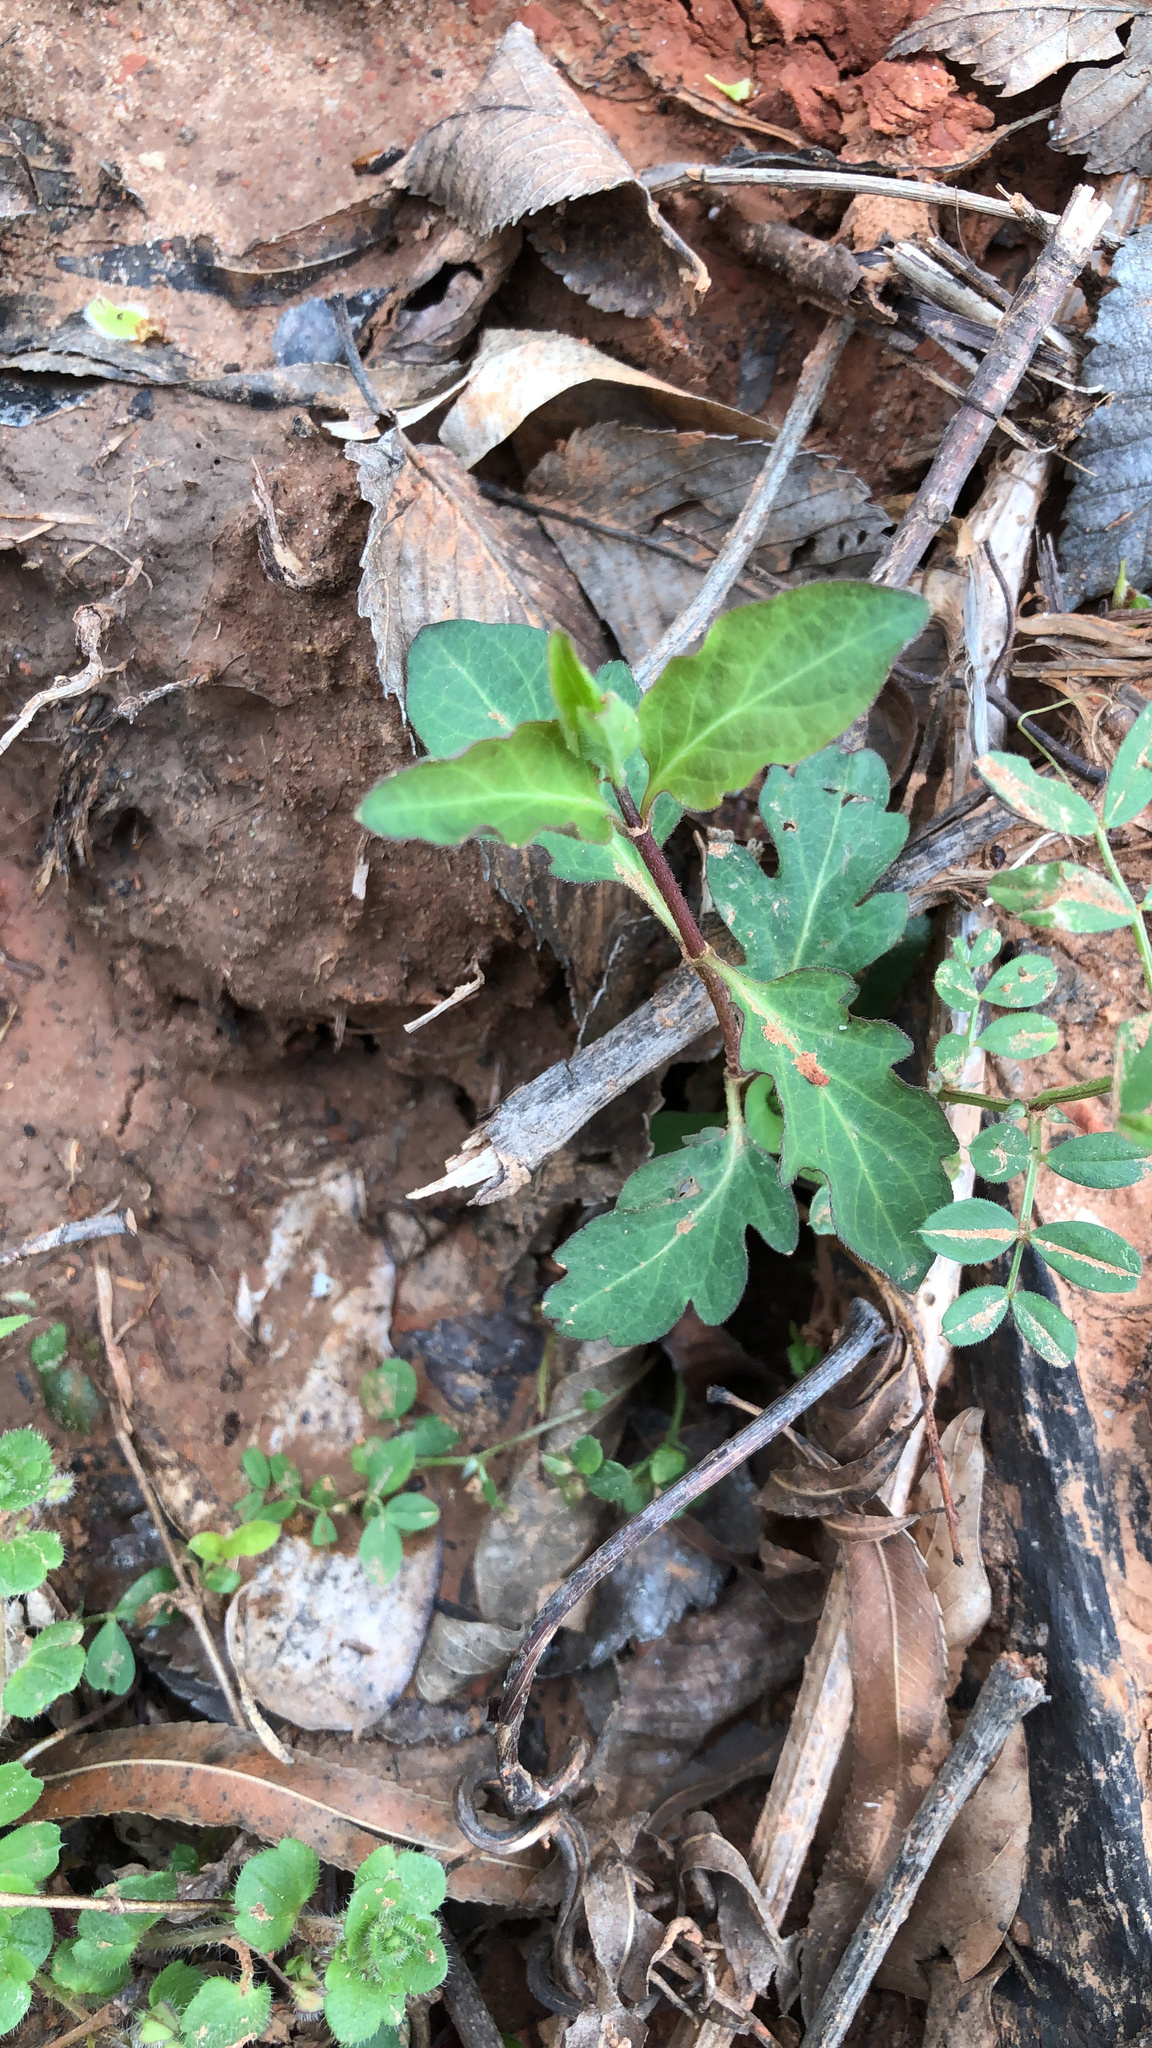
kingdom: Plantae
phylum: Tracheophyta
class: Magnoliopsida
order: Dipsacales
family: Caprifoliaceae
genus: Lonicera
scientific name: Lonicera japonica
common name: Japanese honeysuckle
